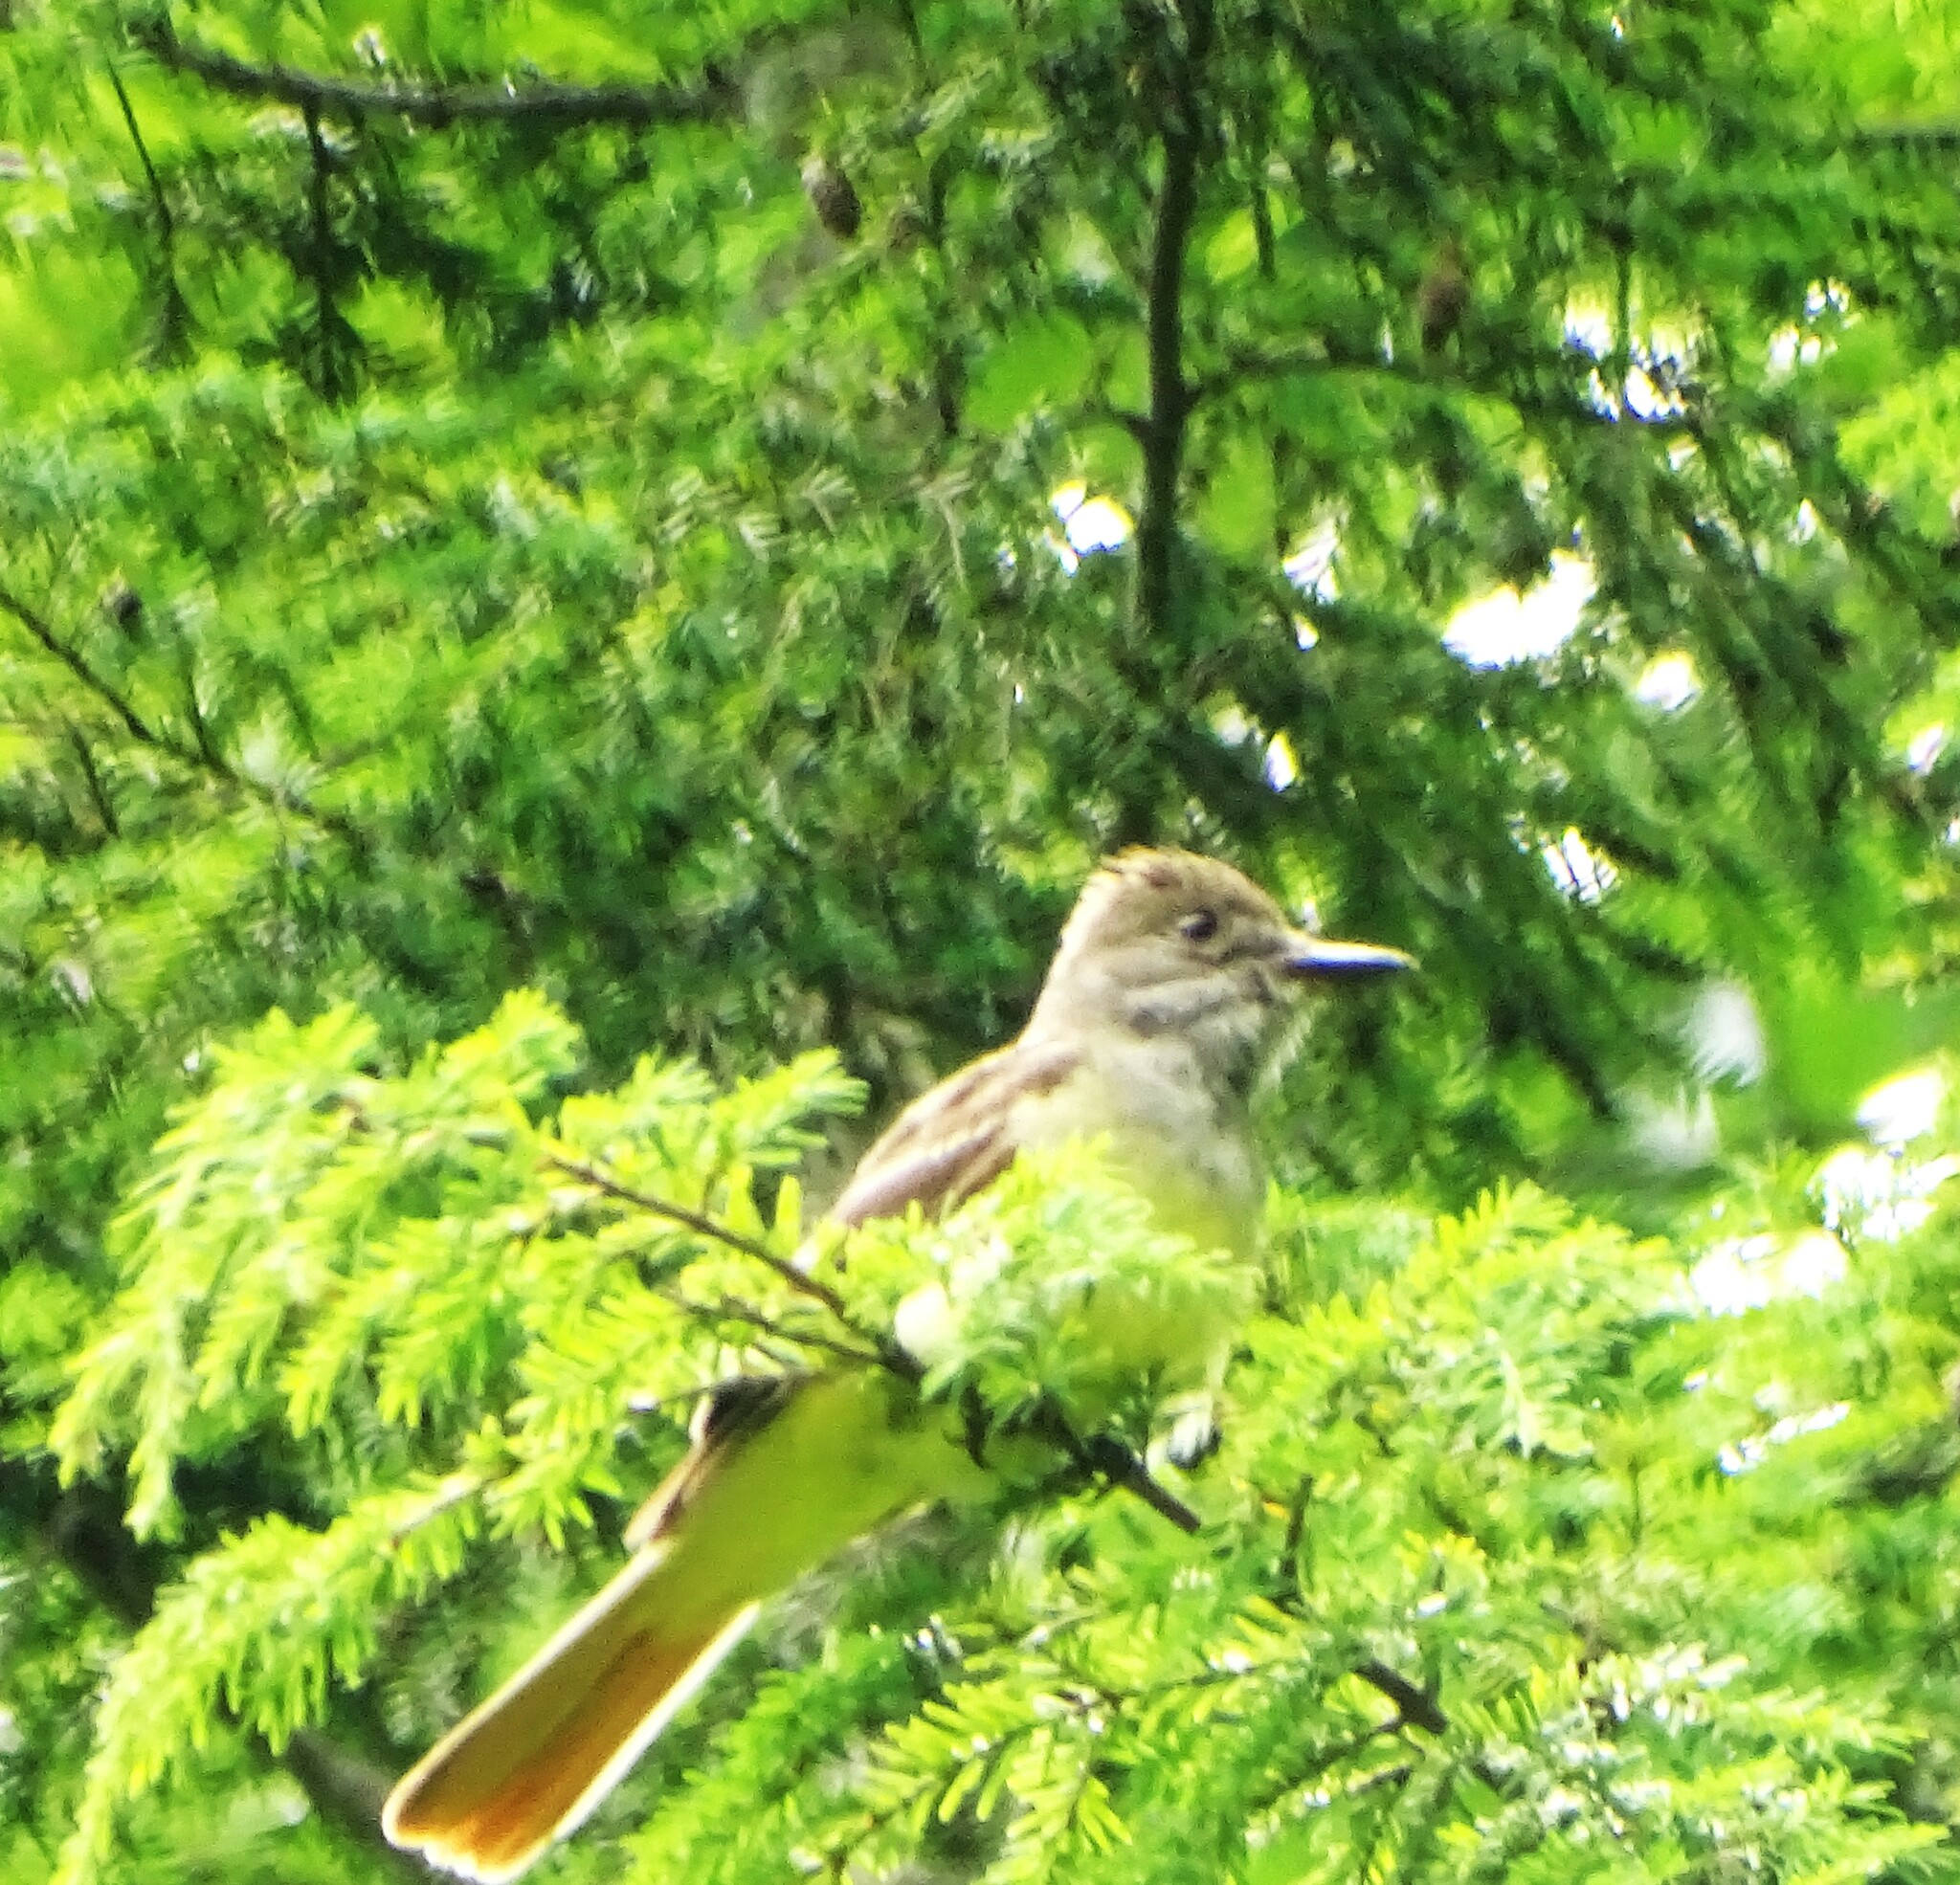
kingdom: Animalia
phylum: Chordata
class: Aves
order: Passeriformes
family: Tyrannidae
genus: Myiarchus
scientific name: Myiarchus crinitus
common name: Great crested flycatcher
